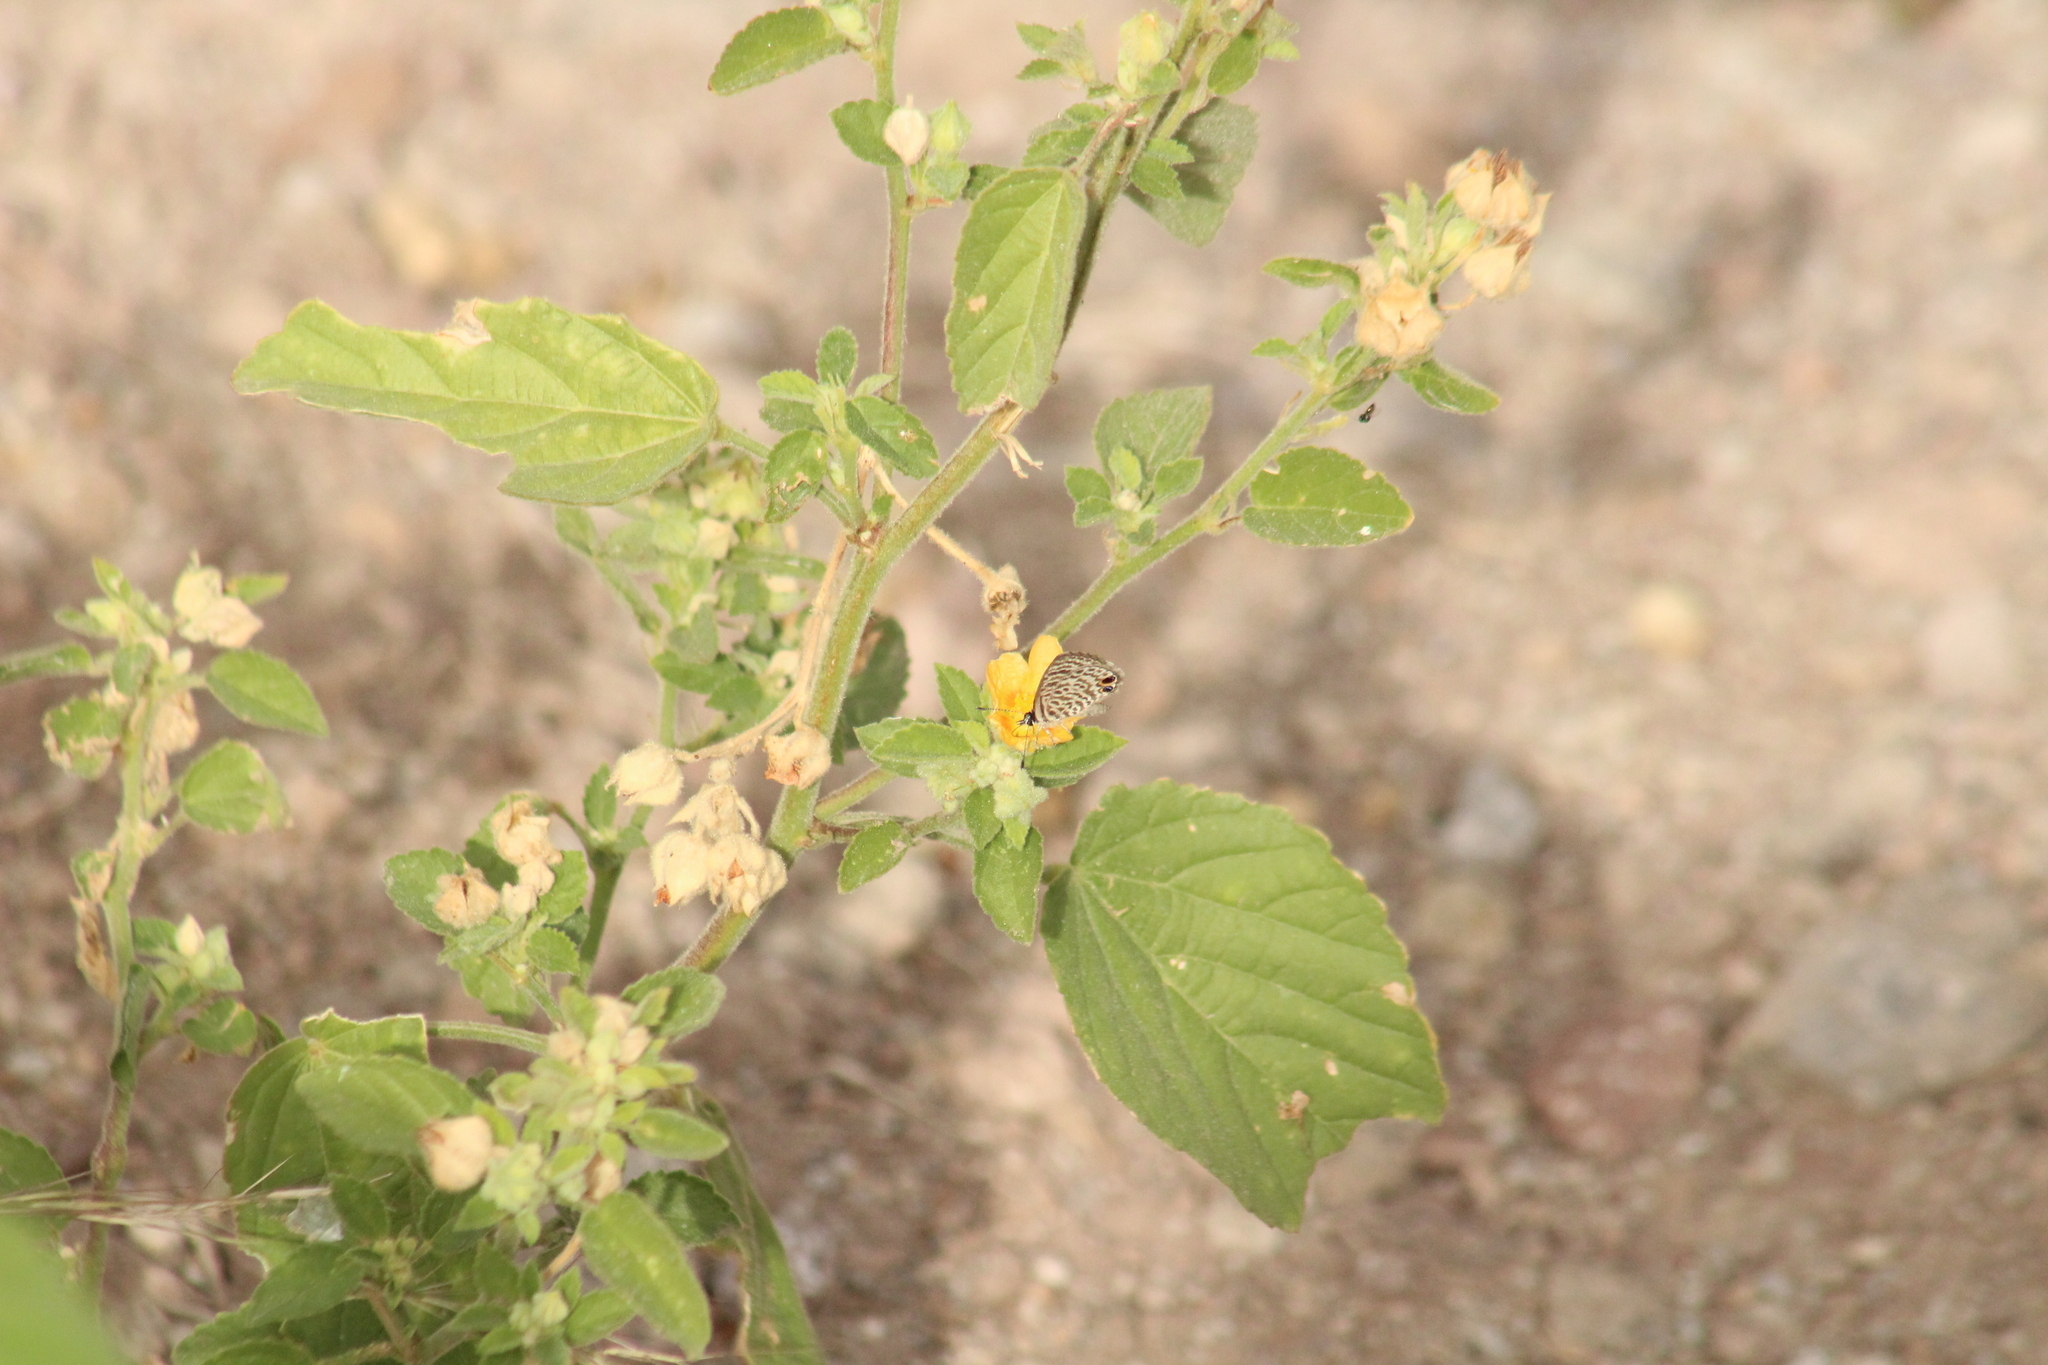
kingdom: Animalia
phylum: Arthropoda
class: Insecta
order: Lepidoptera
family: Lycaenidae
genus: Leptotes
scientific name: Leptotes cassius
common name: Cassius blue
